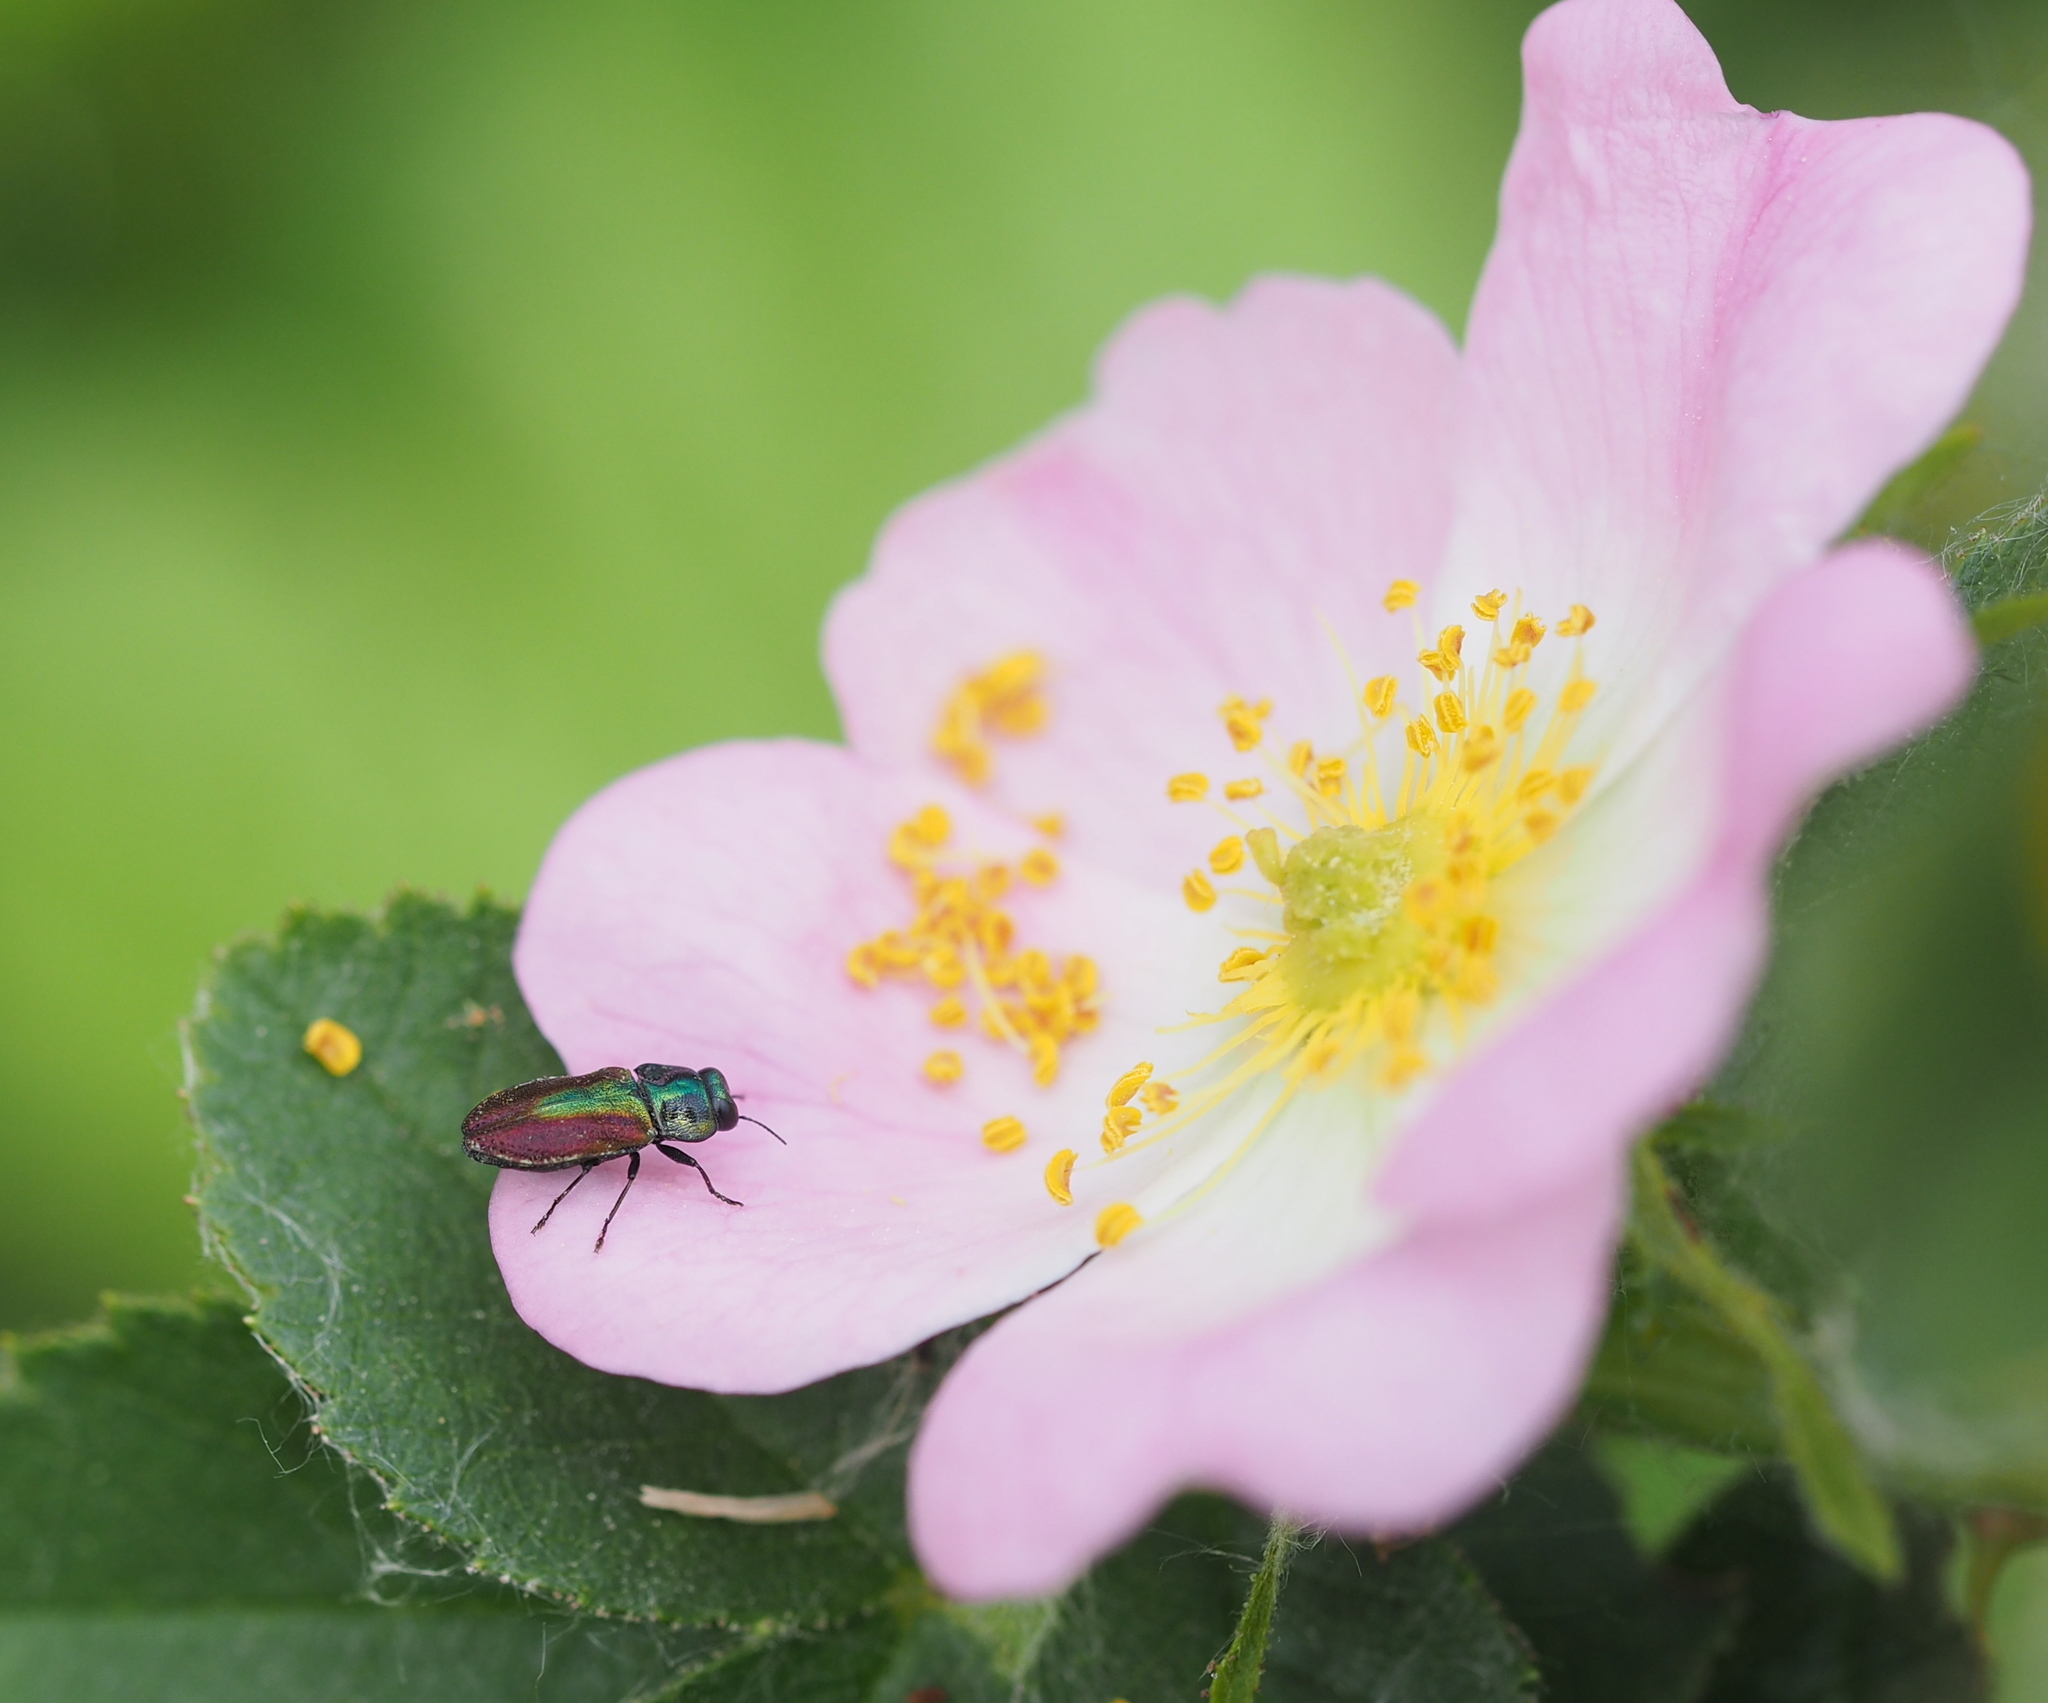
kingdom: Animalia
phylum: Arthropoda
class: Insecta
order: Coleoptera
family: Buprestidae
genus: Anthaxia
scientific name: Anthaxia fulgurans
